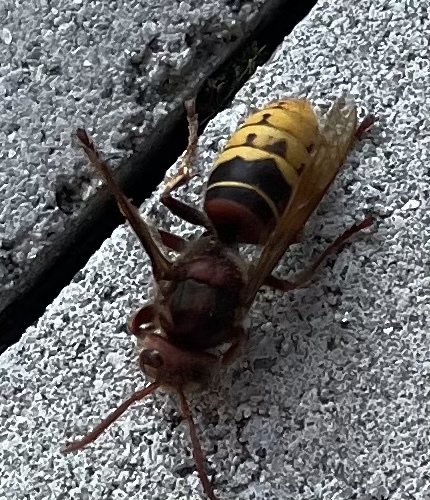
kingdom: Animalia
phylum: Arthropoda
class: Insecta
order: Hymenoptera
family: Vespidae
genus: Vespa
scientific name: Vespa crabro
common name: Hornet
